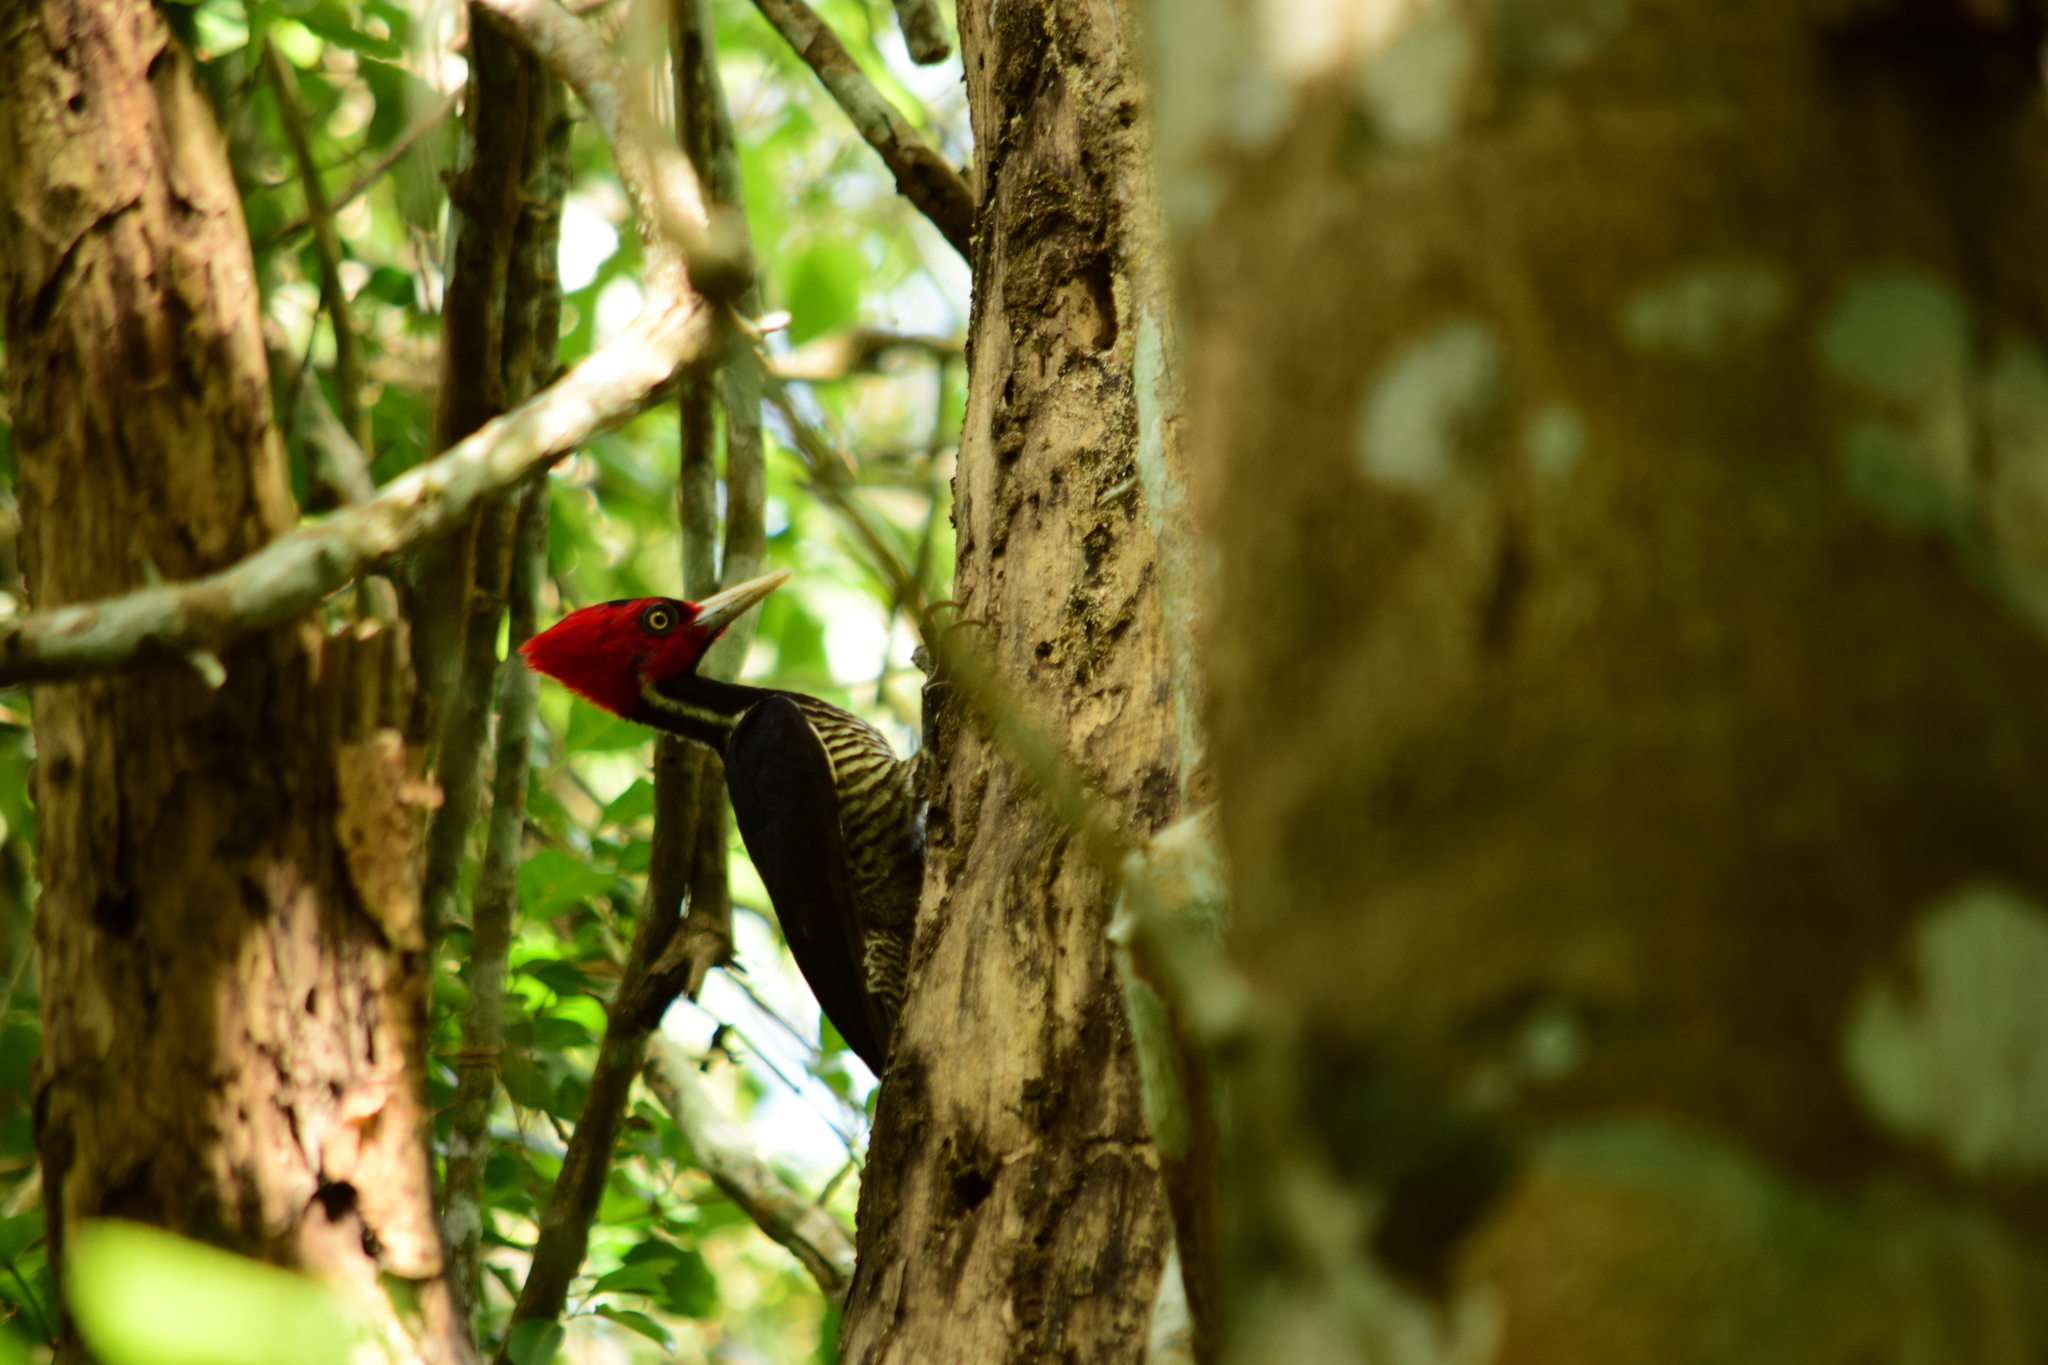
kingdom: Animalia
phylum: Chordata
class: Aves
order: Piciformes
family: Picidae
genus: Campephilus
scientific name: Campephilus guatemalensis
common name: Pale-billed woodpecker
